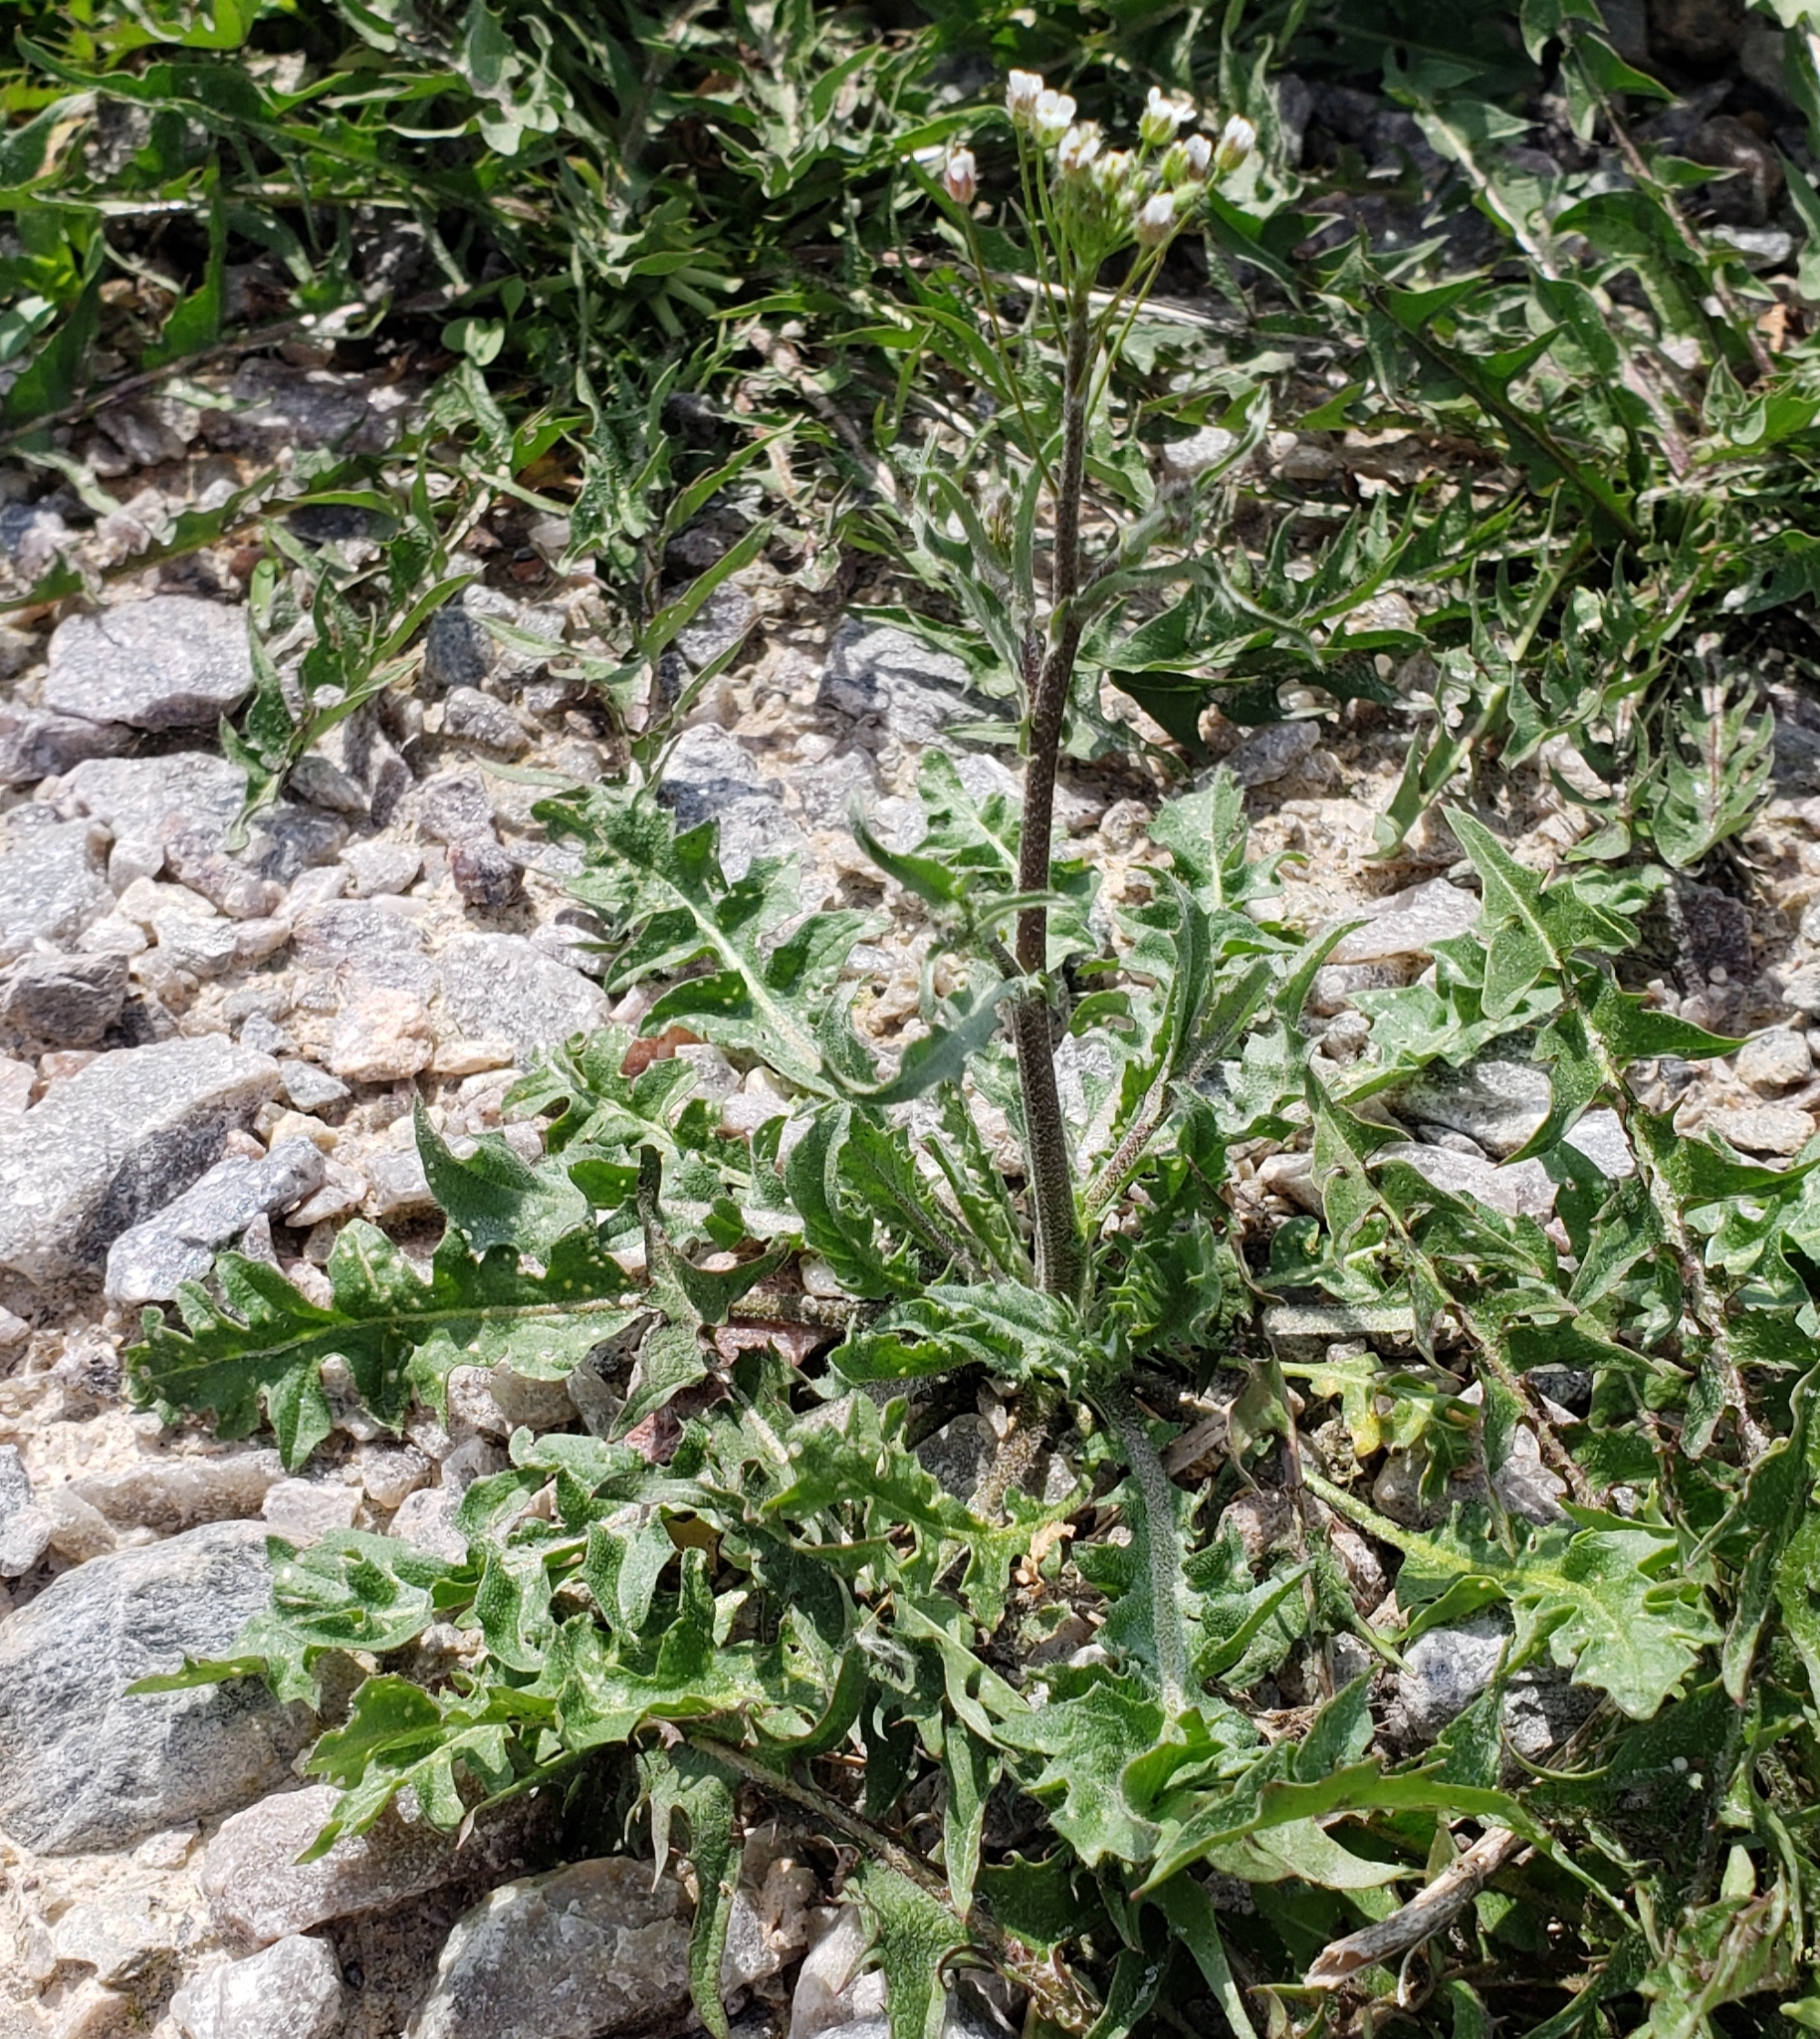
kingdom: Plantae
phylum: Tracheophyta
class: Magnoliopsida
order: Brassicales
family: Brassicaceae
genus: Capsella
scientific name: Capsella bursa-pastoris
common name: Shepherd's purse
